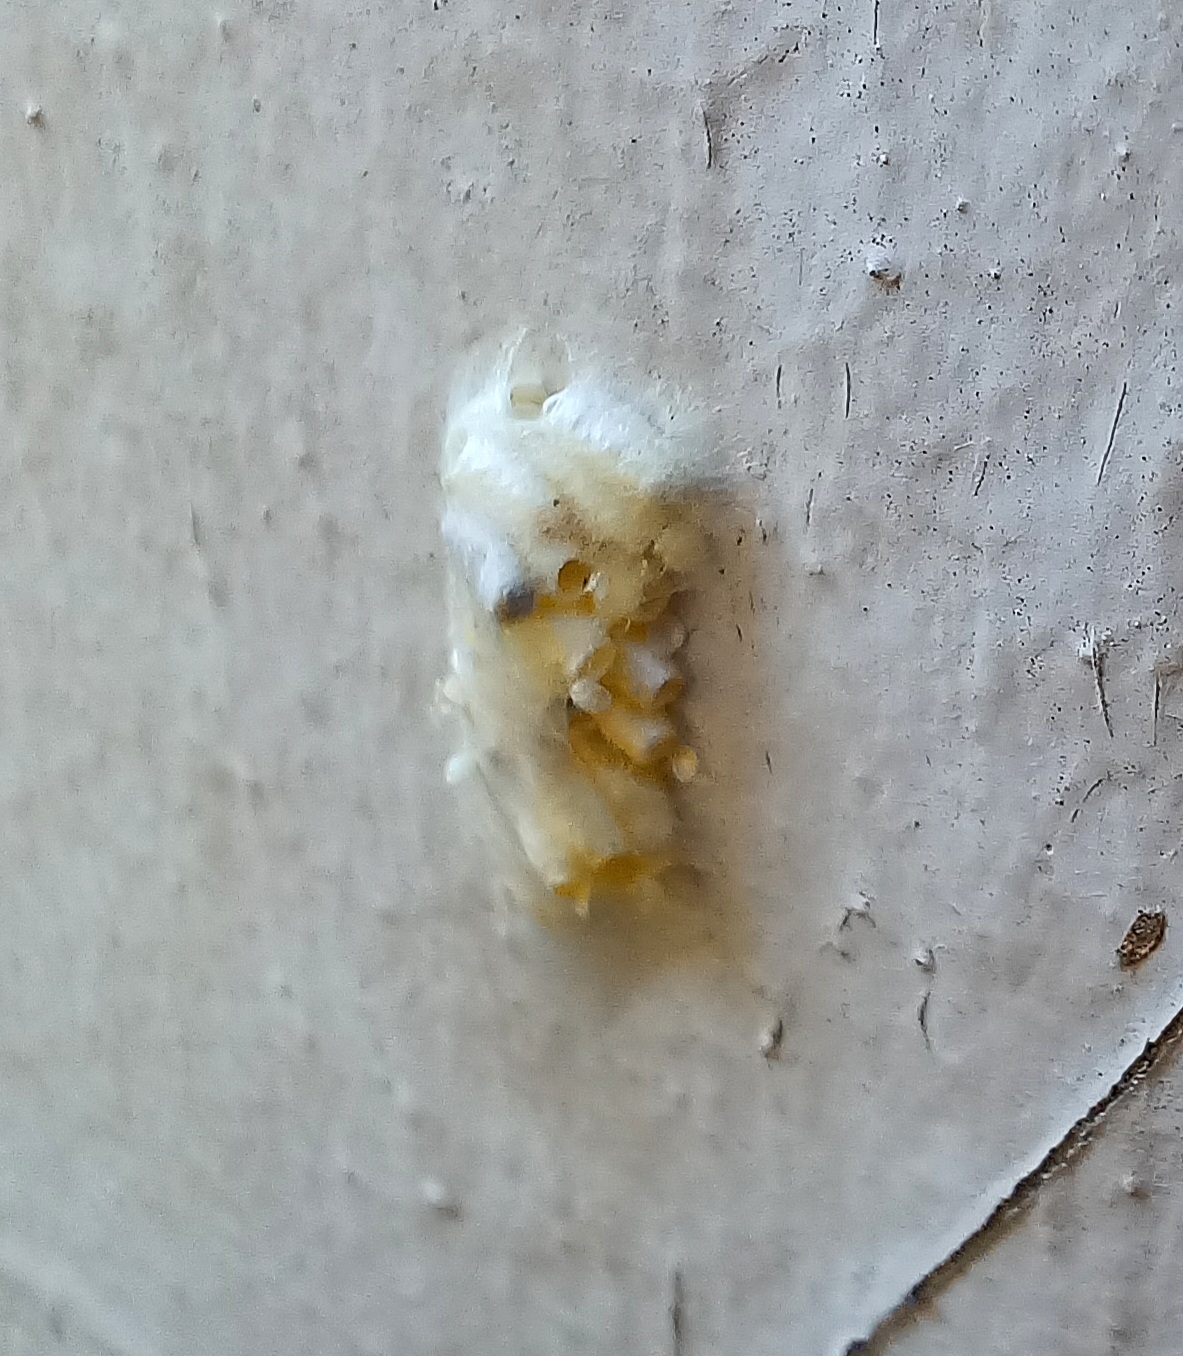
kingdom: Animalia
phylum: Arthropoda
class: Insecta
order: Hymenoptera
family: Braconidae
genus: Cotesia
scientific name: Cotesia glomerata
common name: Parasitoid wasp
